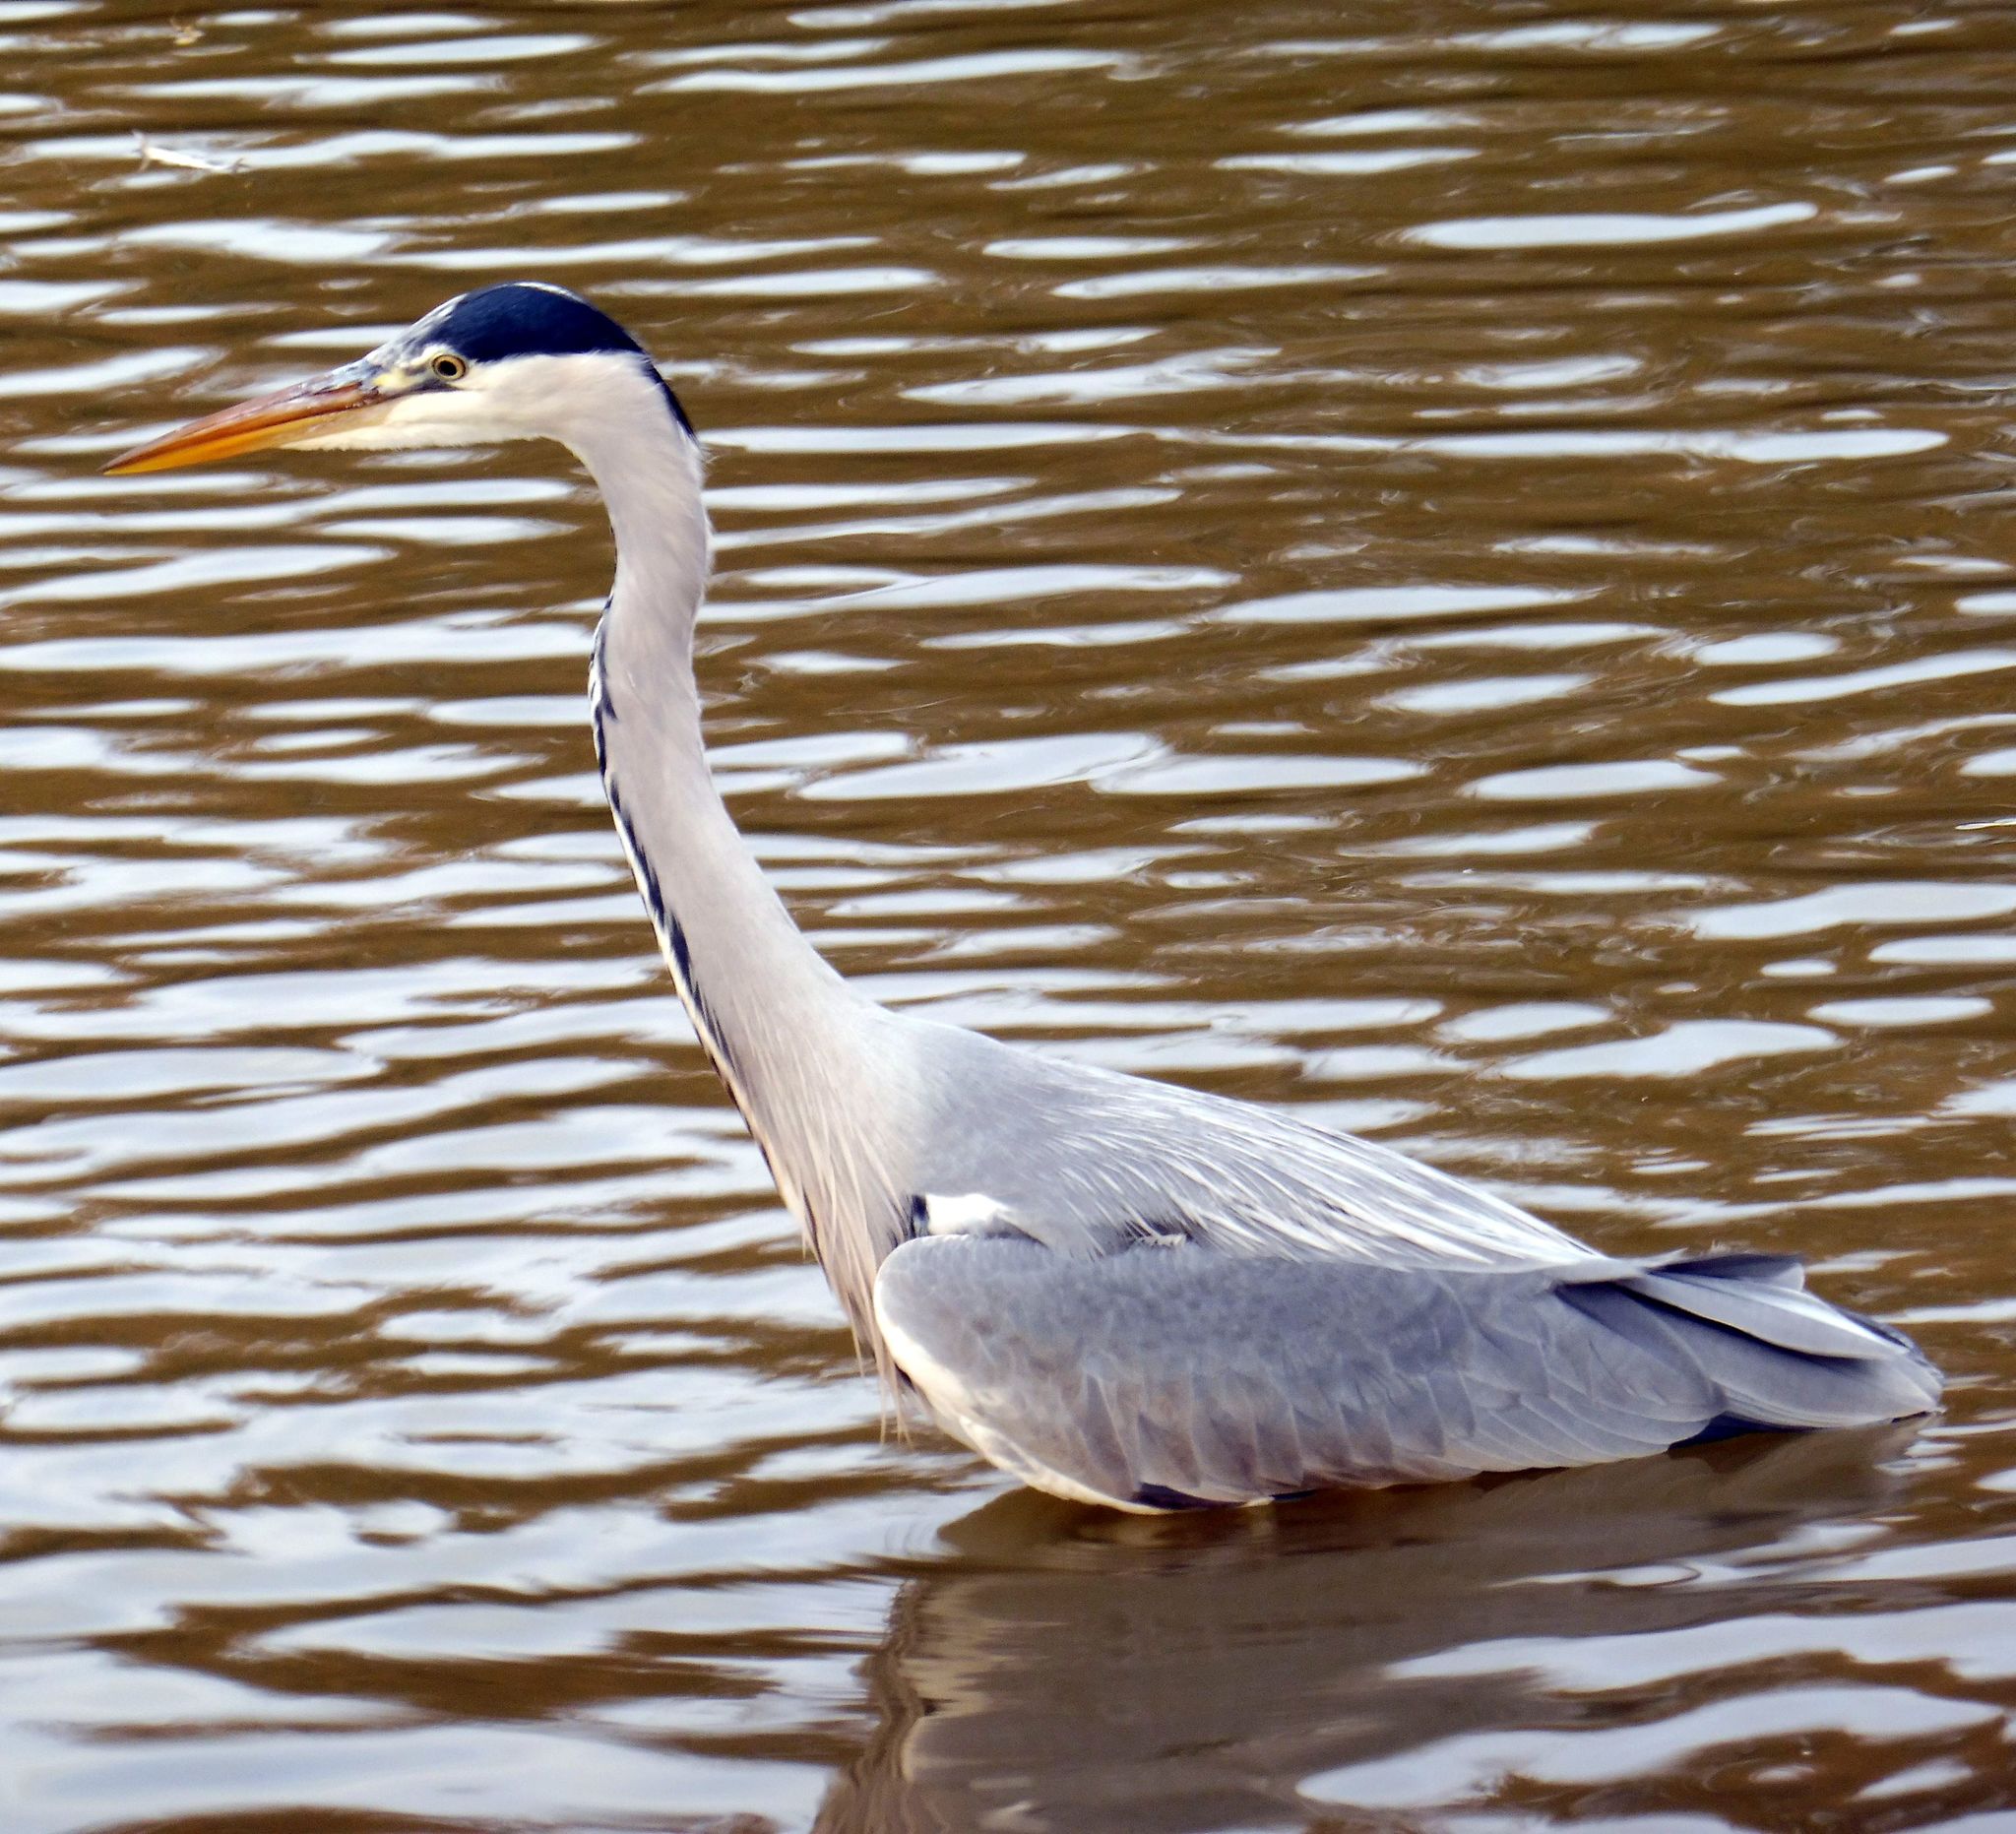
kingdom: Animalia
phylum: Chordata
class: Aves
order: Pelecaniformes
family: Ardeidae
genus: Ardea
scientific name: Ardea cinerea
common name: Grey heron
